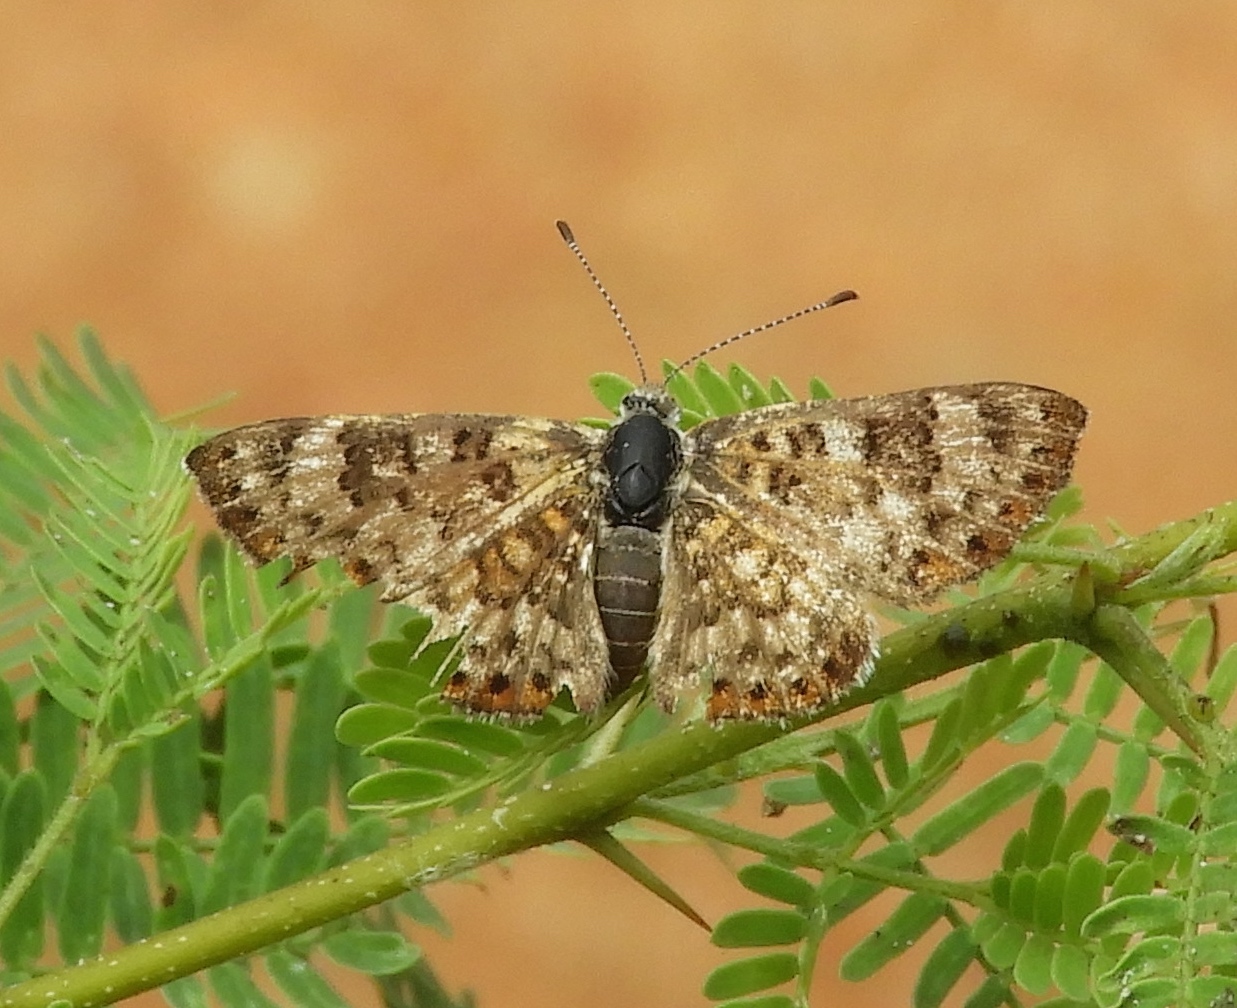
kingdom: Animalia
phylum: Arthropoda
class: Insecta
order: Lepidoptera
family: Riodinidae
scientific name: Riodinidae
